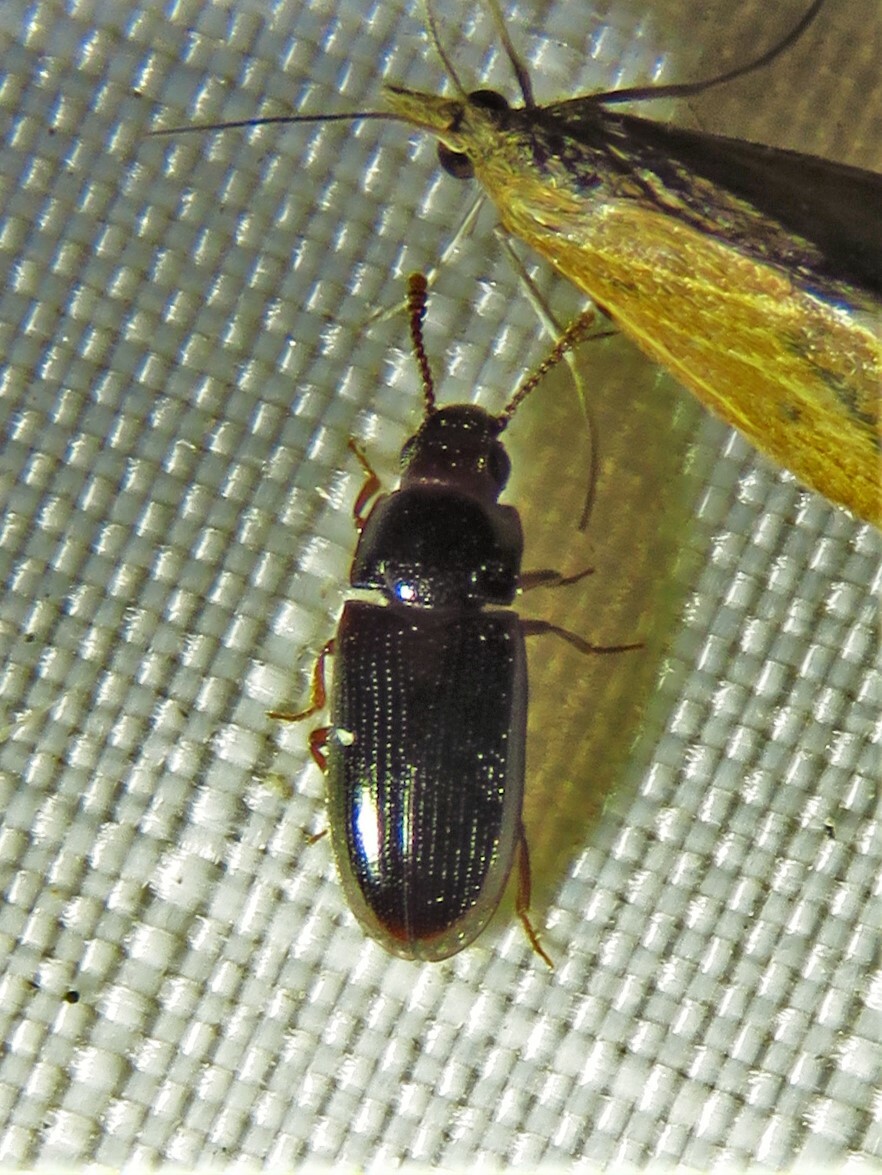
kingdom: Animalia
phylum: Arthropoda
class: Insecta
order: Coleoptera
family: Erotylidae
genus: Pharaxonotha
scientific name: Pharaxonotha kirschii
